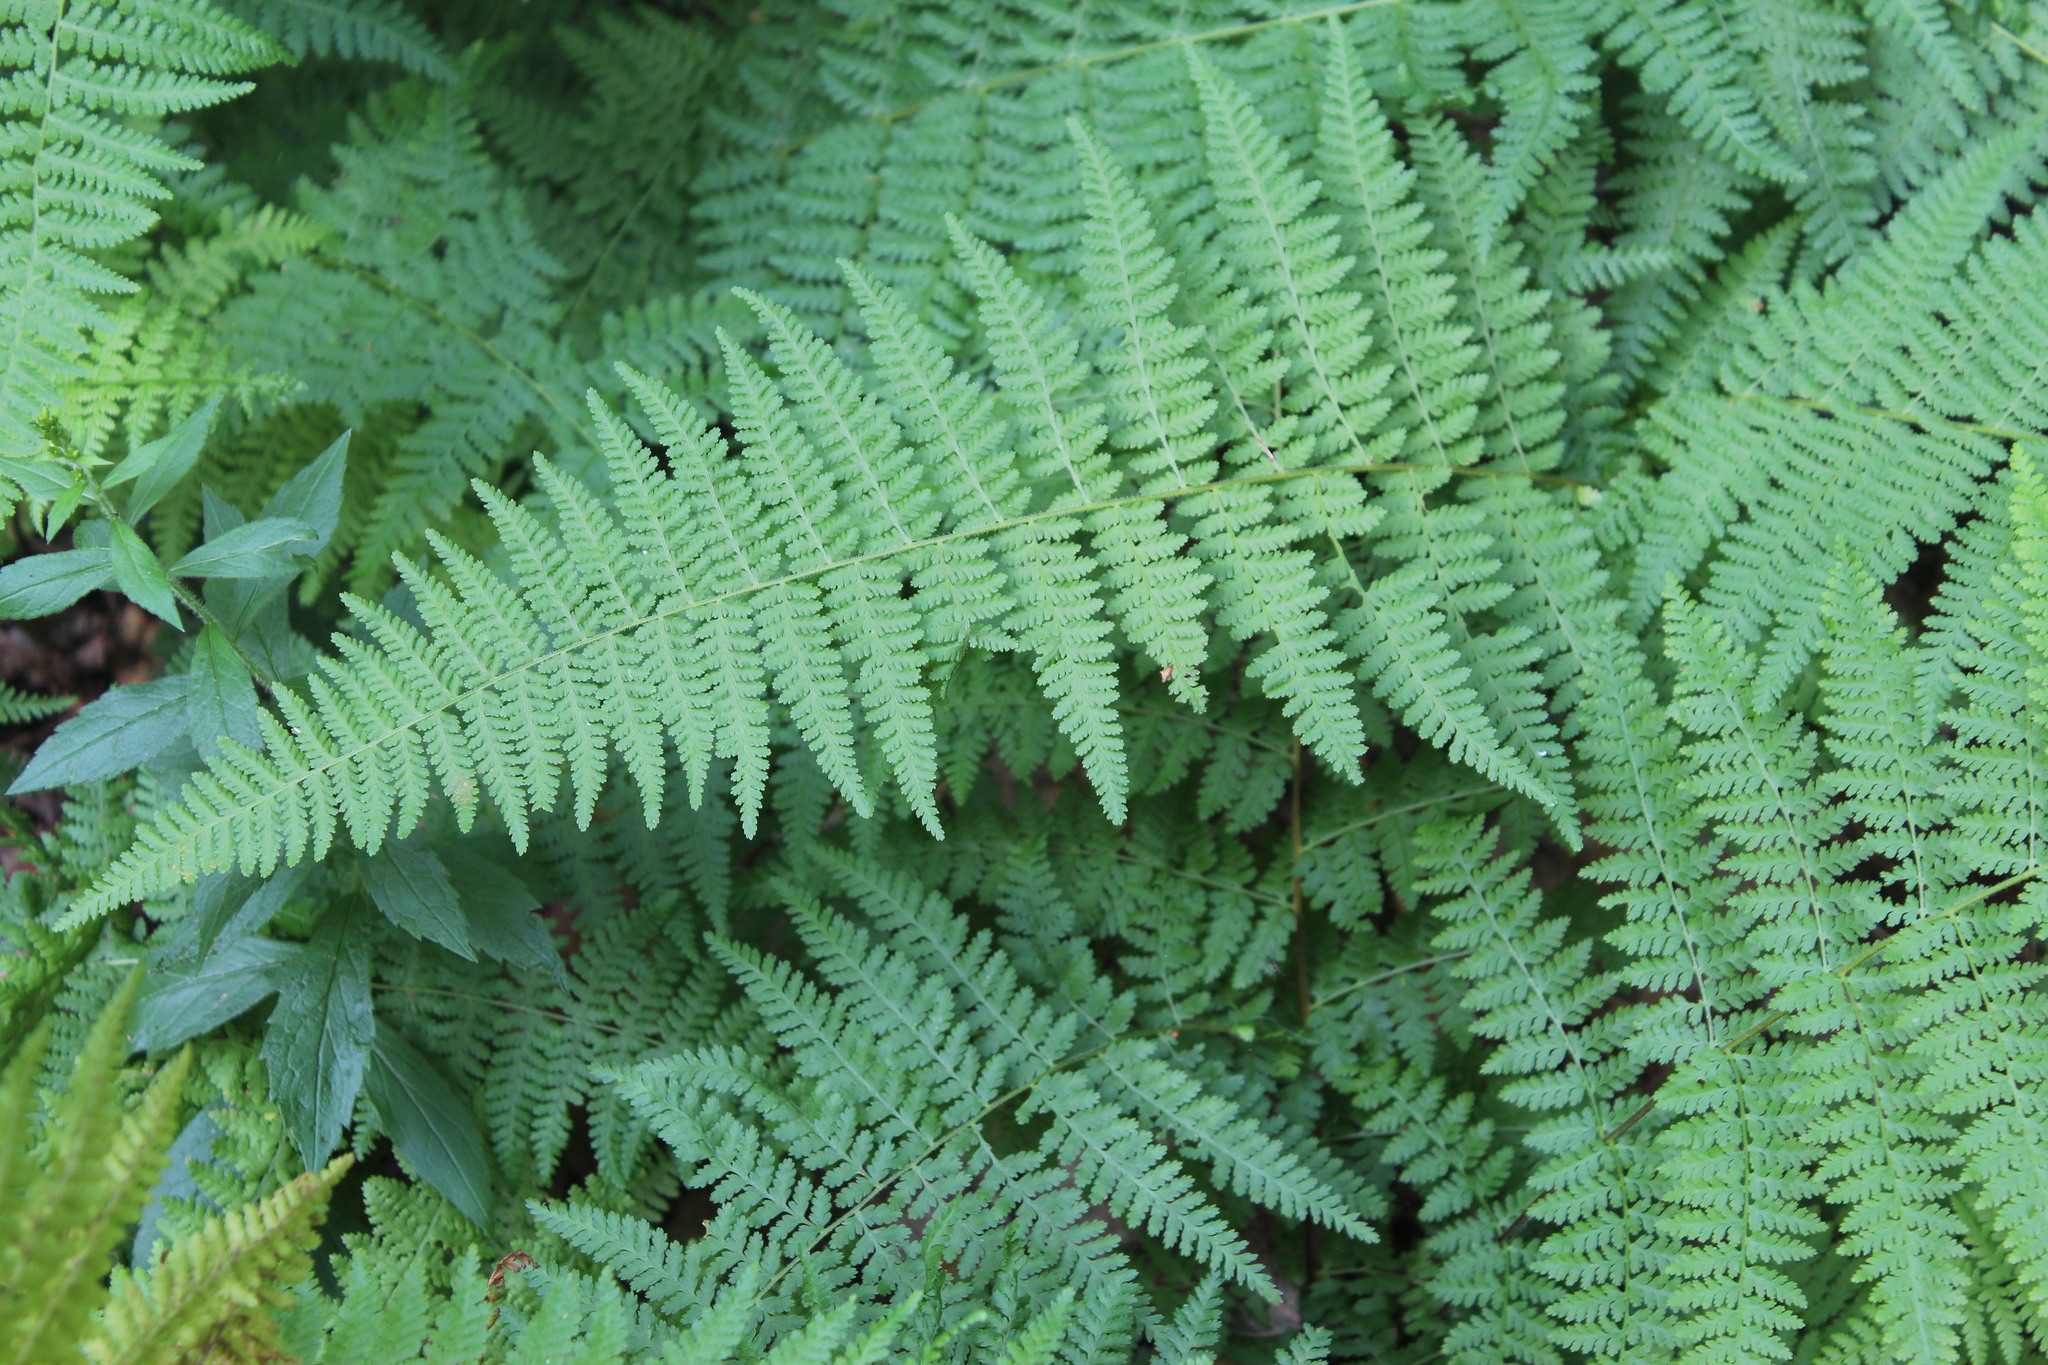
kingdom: Plantae
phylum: Tracheophyta
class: Polypodiopsida
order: Polypodiales
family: Dennstaedtiaceae
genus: Sitobolium
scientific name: Sitobolium punctilobum
